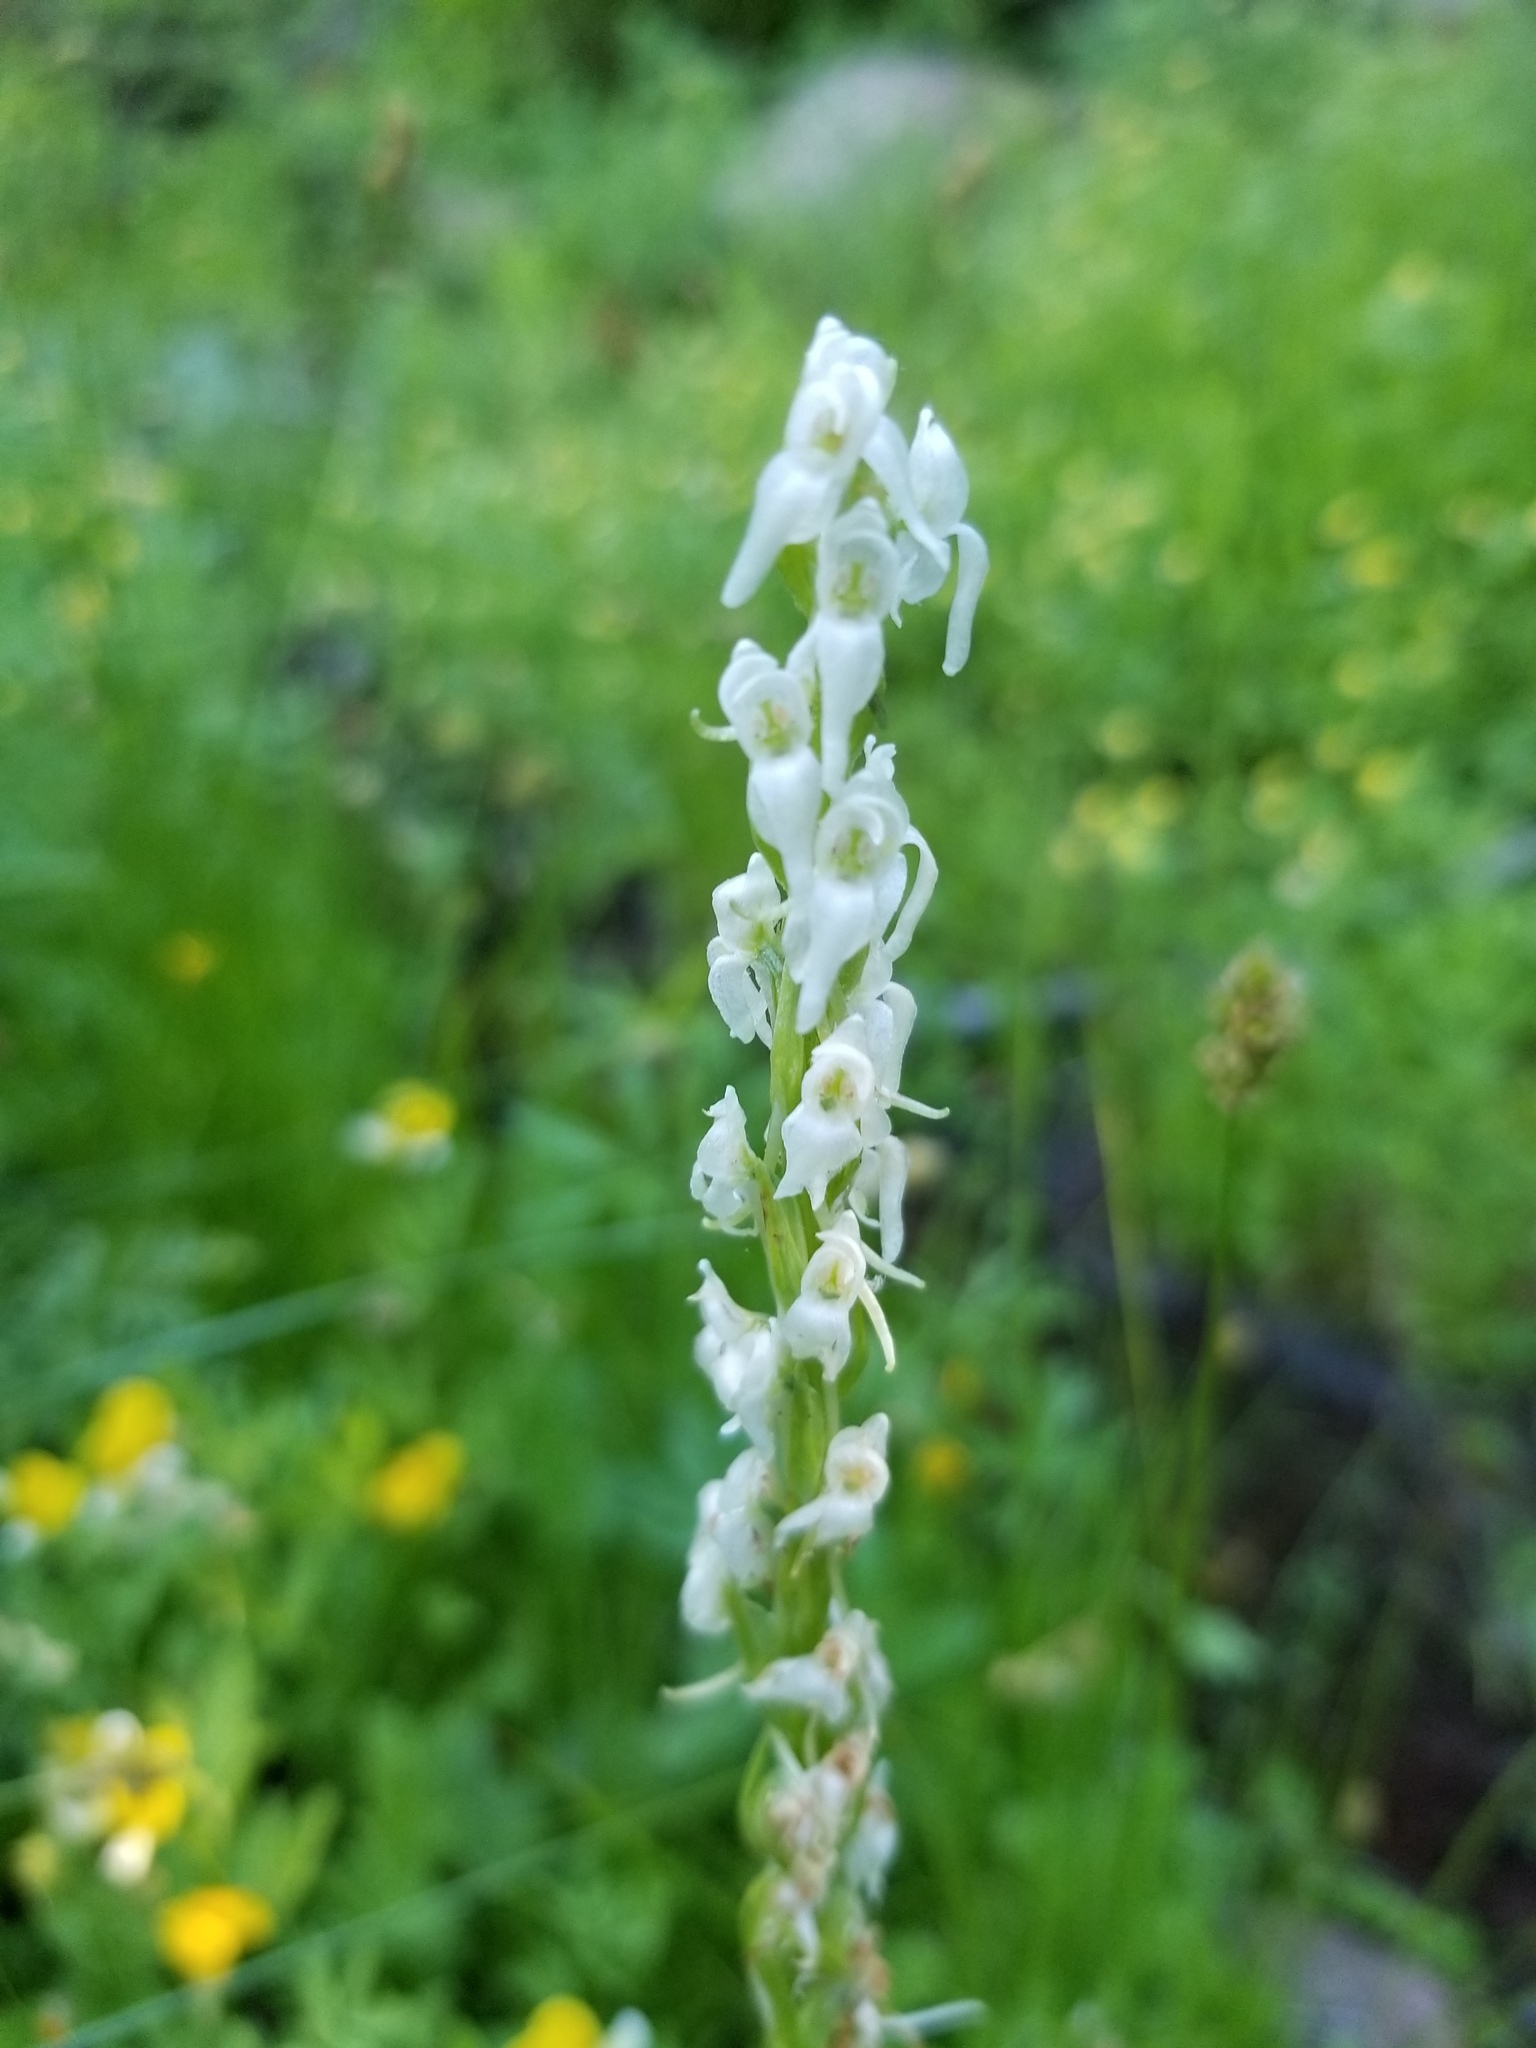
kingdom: Plantae
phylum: Tracheophyta
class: Liliopsida
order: Asparagales
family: Orchidaceae
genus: Platanthera
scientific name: Platanthera dilatata
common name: Bog candles
